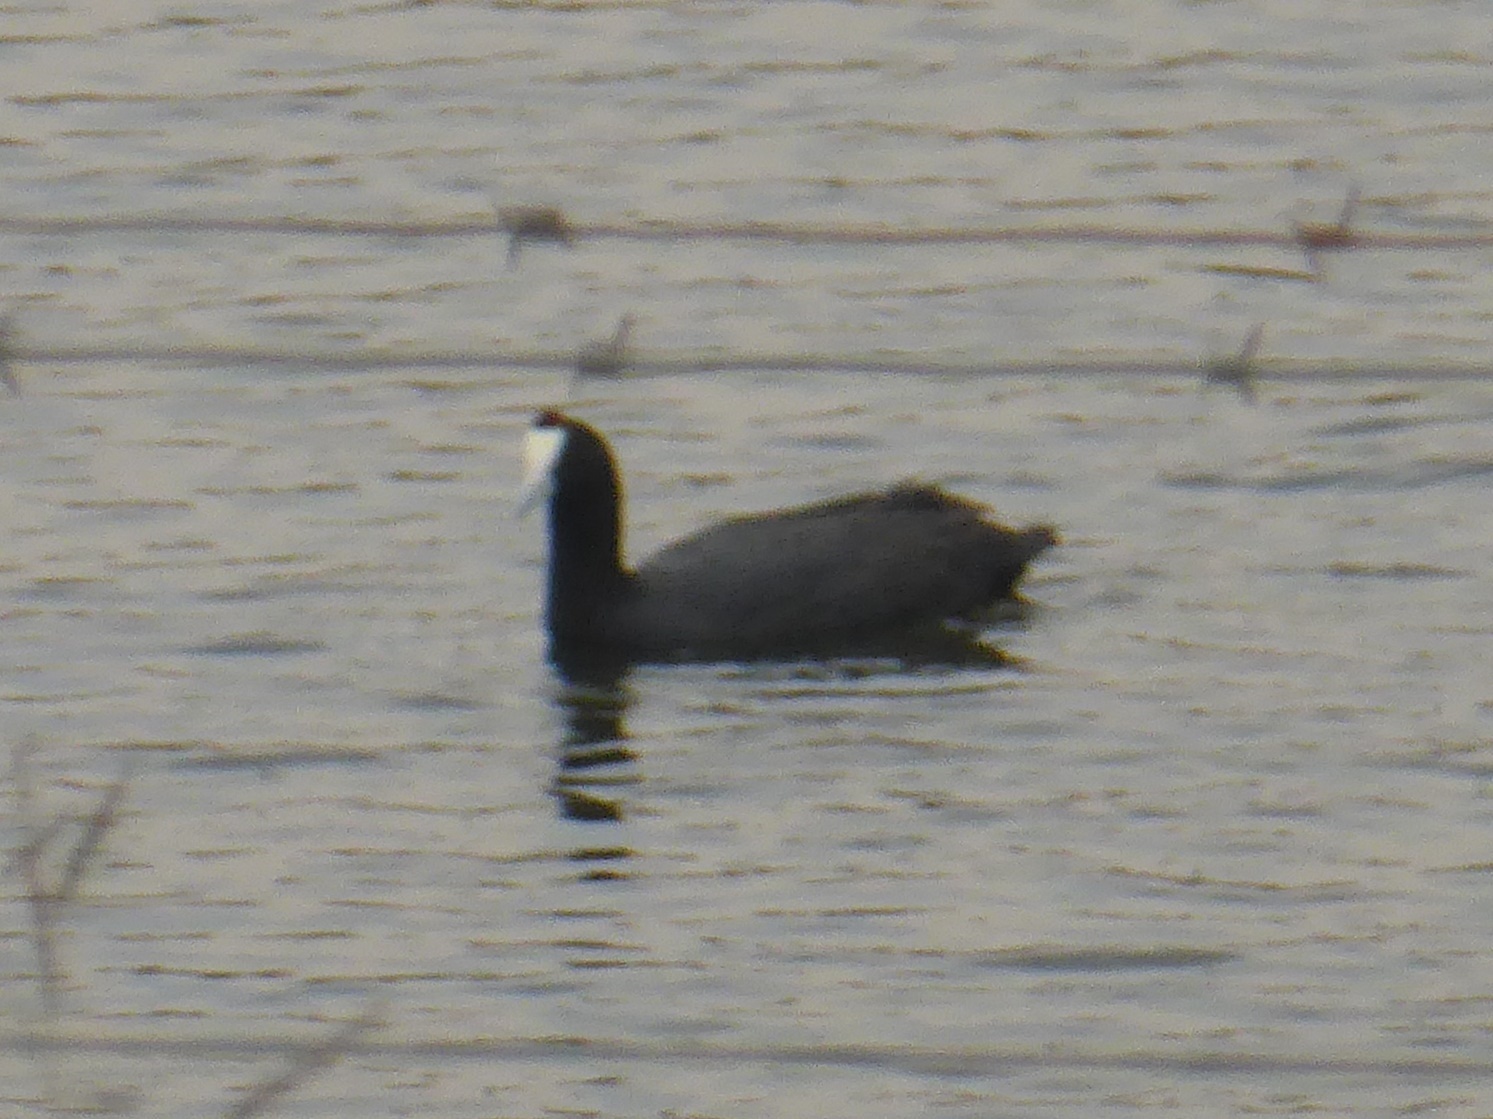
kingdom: Animalia
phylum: Chordata
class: Aves
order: Gruiformes
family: Rallidae
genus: Fulica
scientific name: Fulica cristata
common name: Red-knobbed coot
